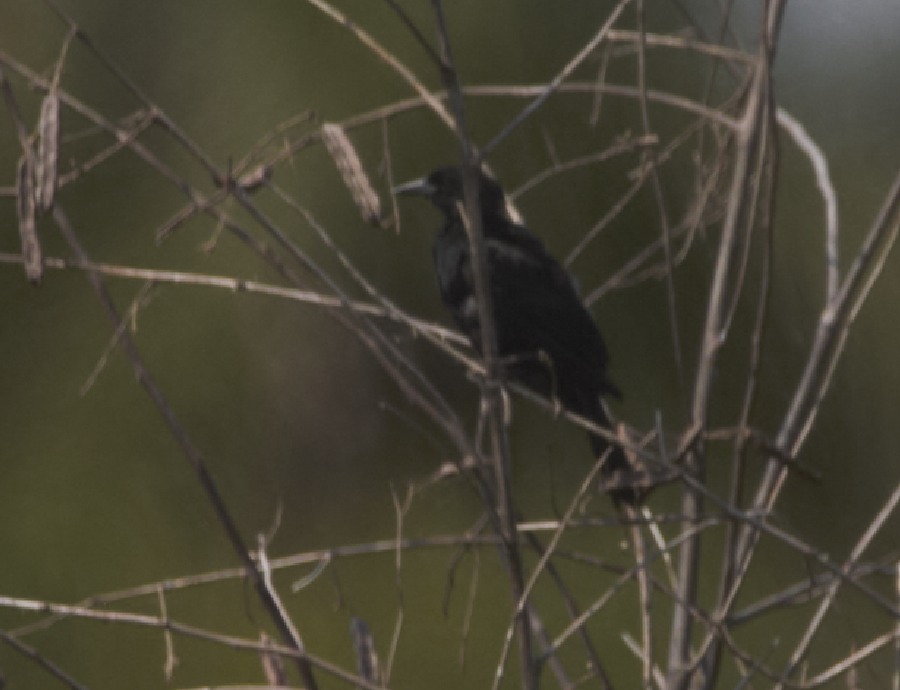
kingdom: Animalia
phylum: Chordata
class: Aves
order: Passeriformes
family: Icteridae
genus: Agelasticus
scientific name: Agelasticus cyanopus
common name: Unicolored blackbird
